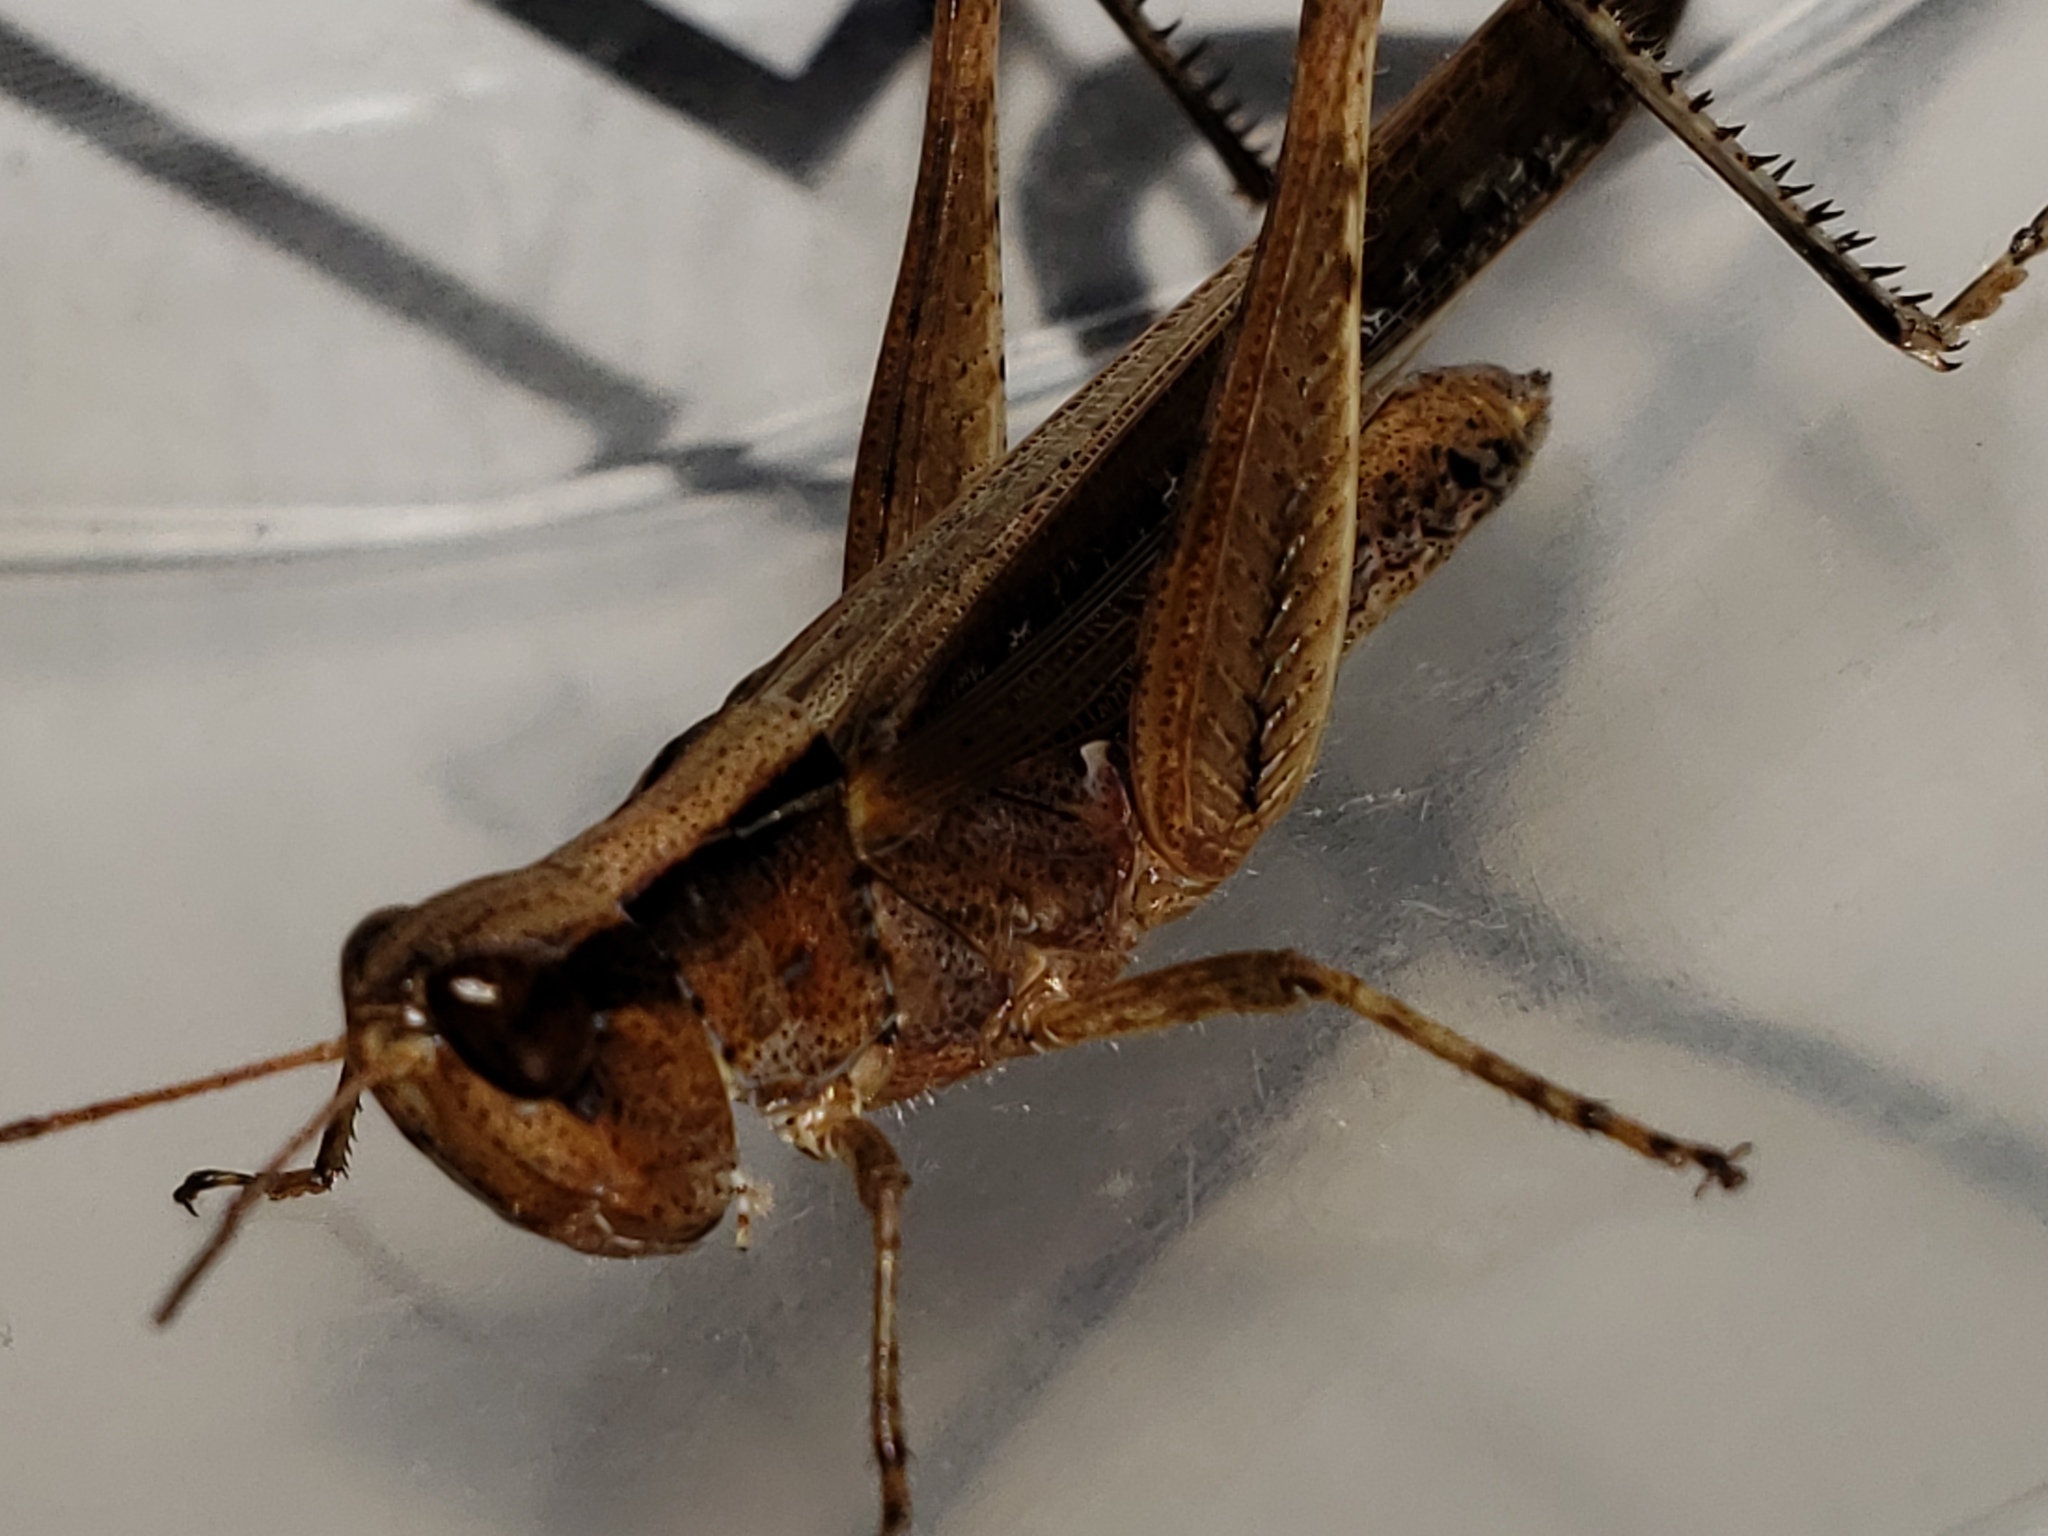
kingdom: Animalia
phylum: Arthropoda
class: Insecta
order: Orthoptera
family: Acrididae
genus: Orphulella
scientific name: Orphulella pelidna
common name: Spotted-wing grasshopper
